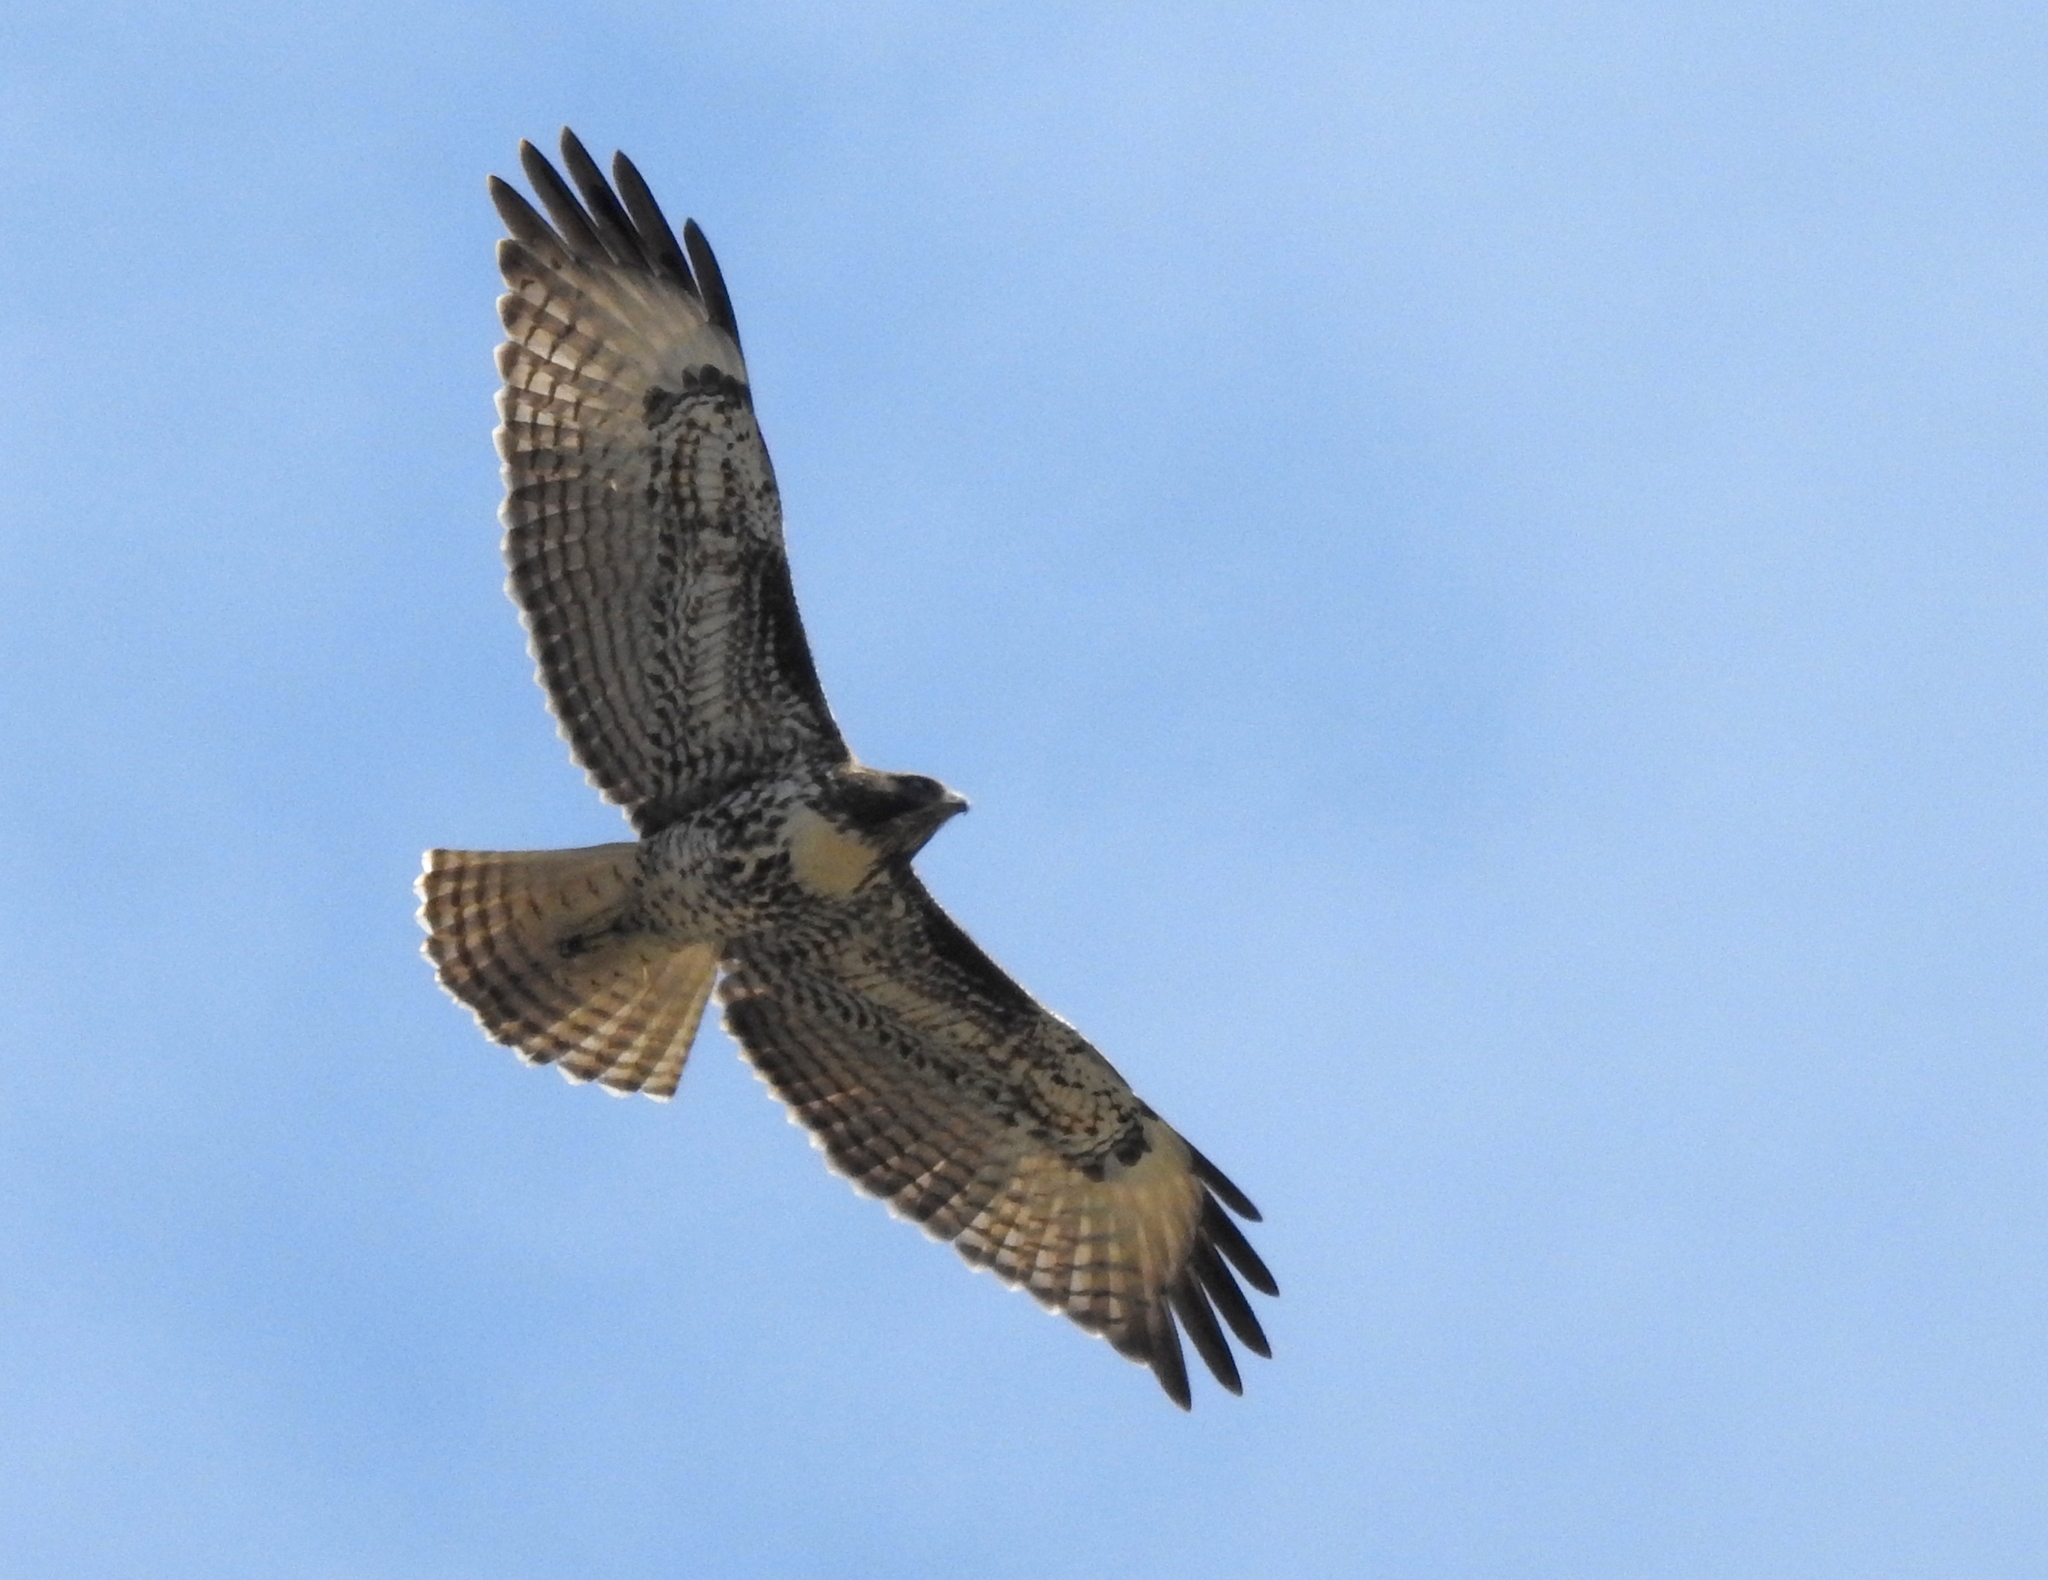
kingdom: Animalia
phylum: Chordata
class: Aves
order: Accipitriformes
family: Accipitridae
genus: Buteo
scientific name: Buteo jamaicensis
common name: Red-tailed hawk
